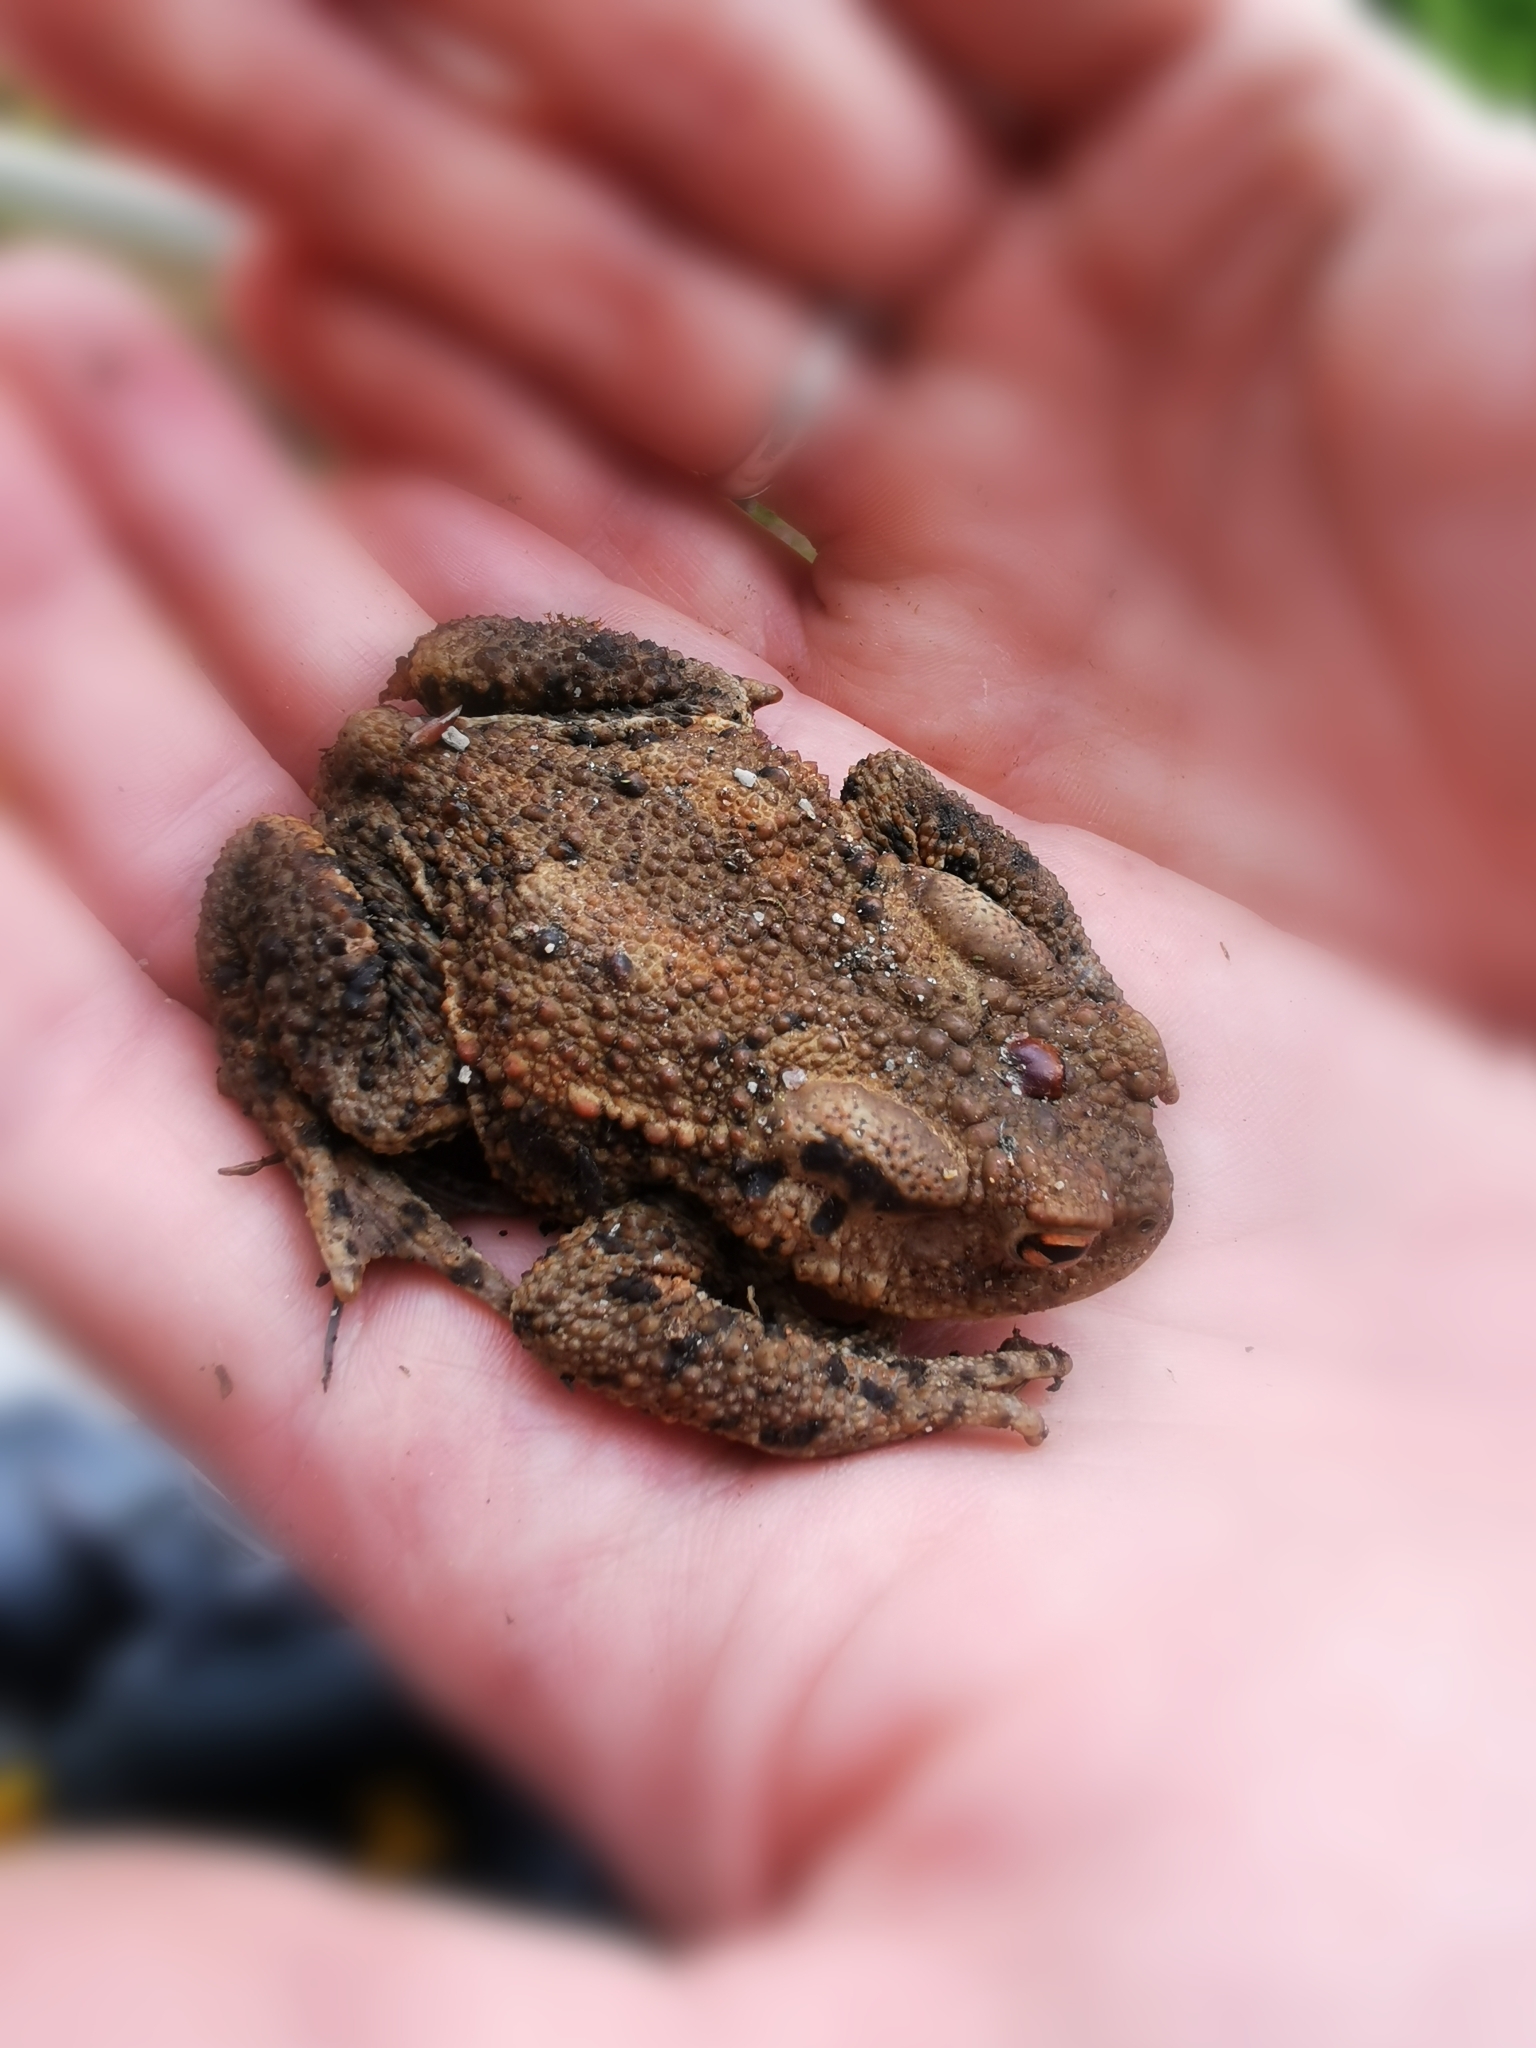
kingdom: Animalia
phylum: Chordata
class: Amphibia
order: Anura
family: Bufonidae
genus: Bufo
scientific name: Bufo bufo
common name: Common toad
